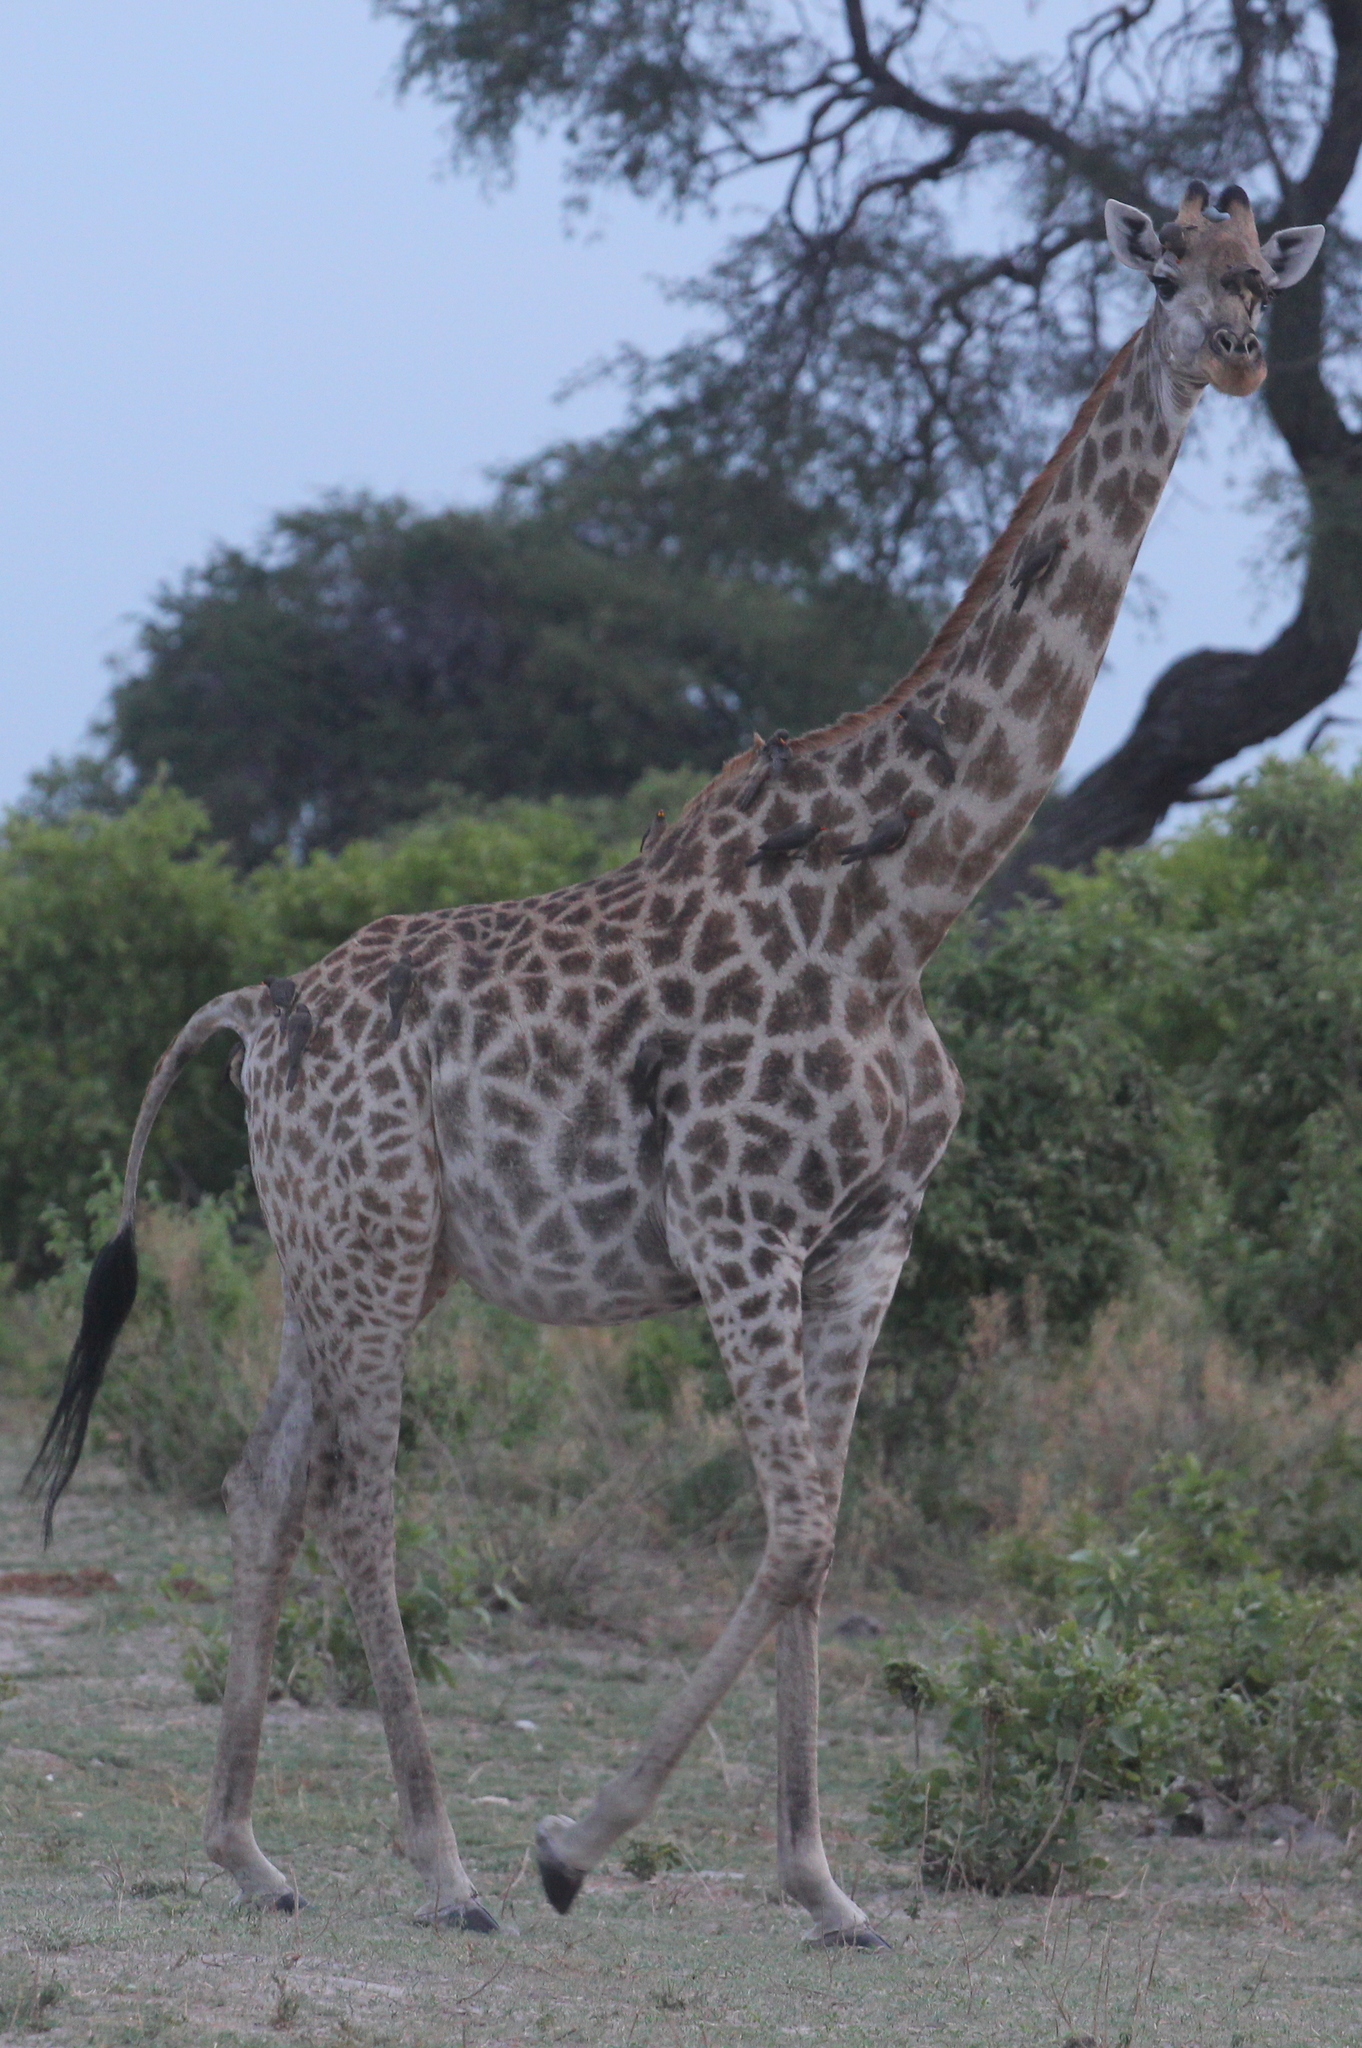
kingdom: Animalia
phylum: Chordata
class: Mammalia
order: Artiodactyla
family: Giraffidae
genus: Giraffa
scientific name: Giraffa giraffa
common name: Southern giraffe
